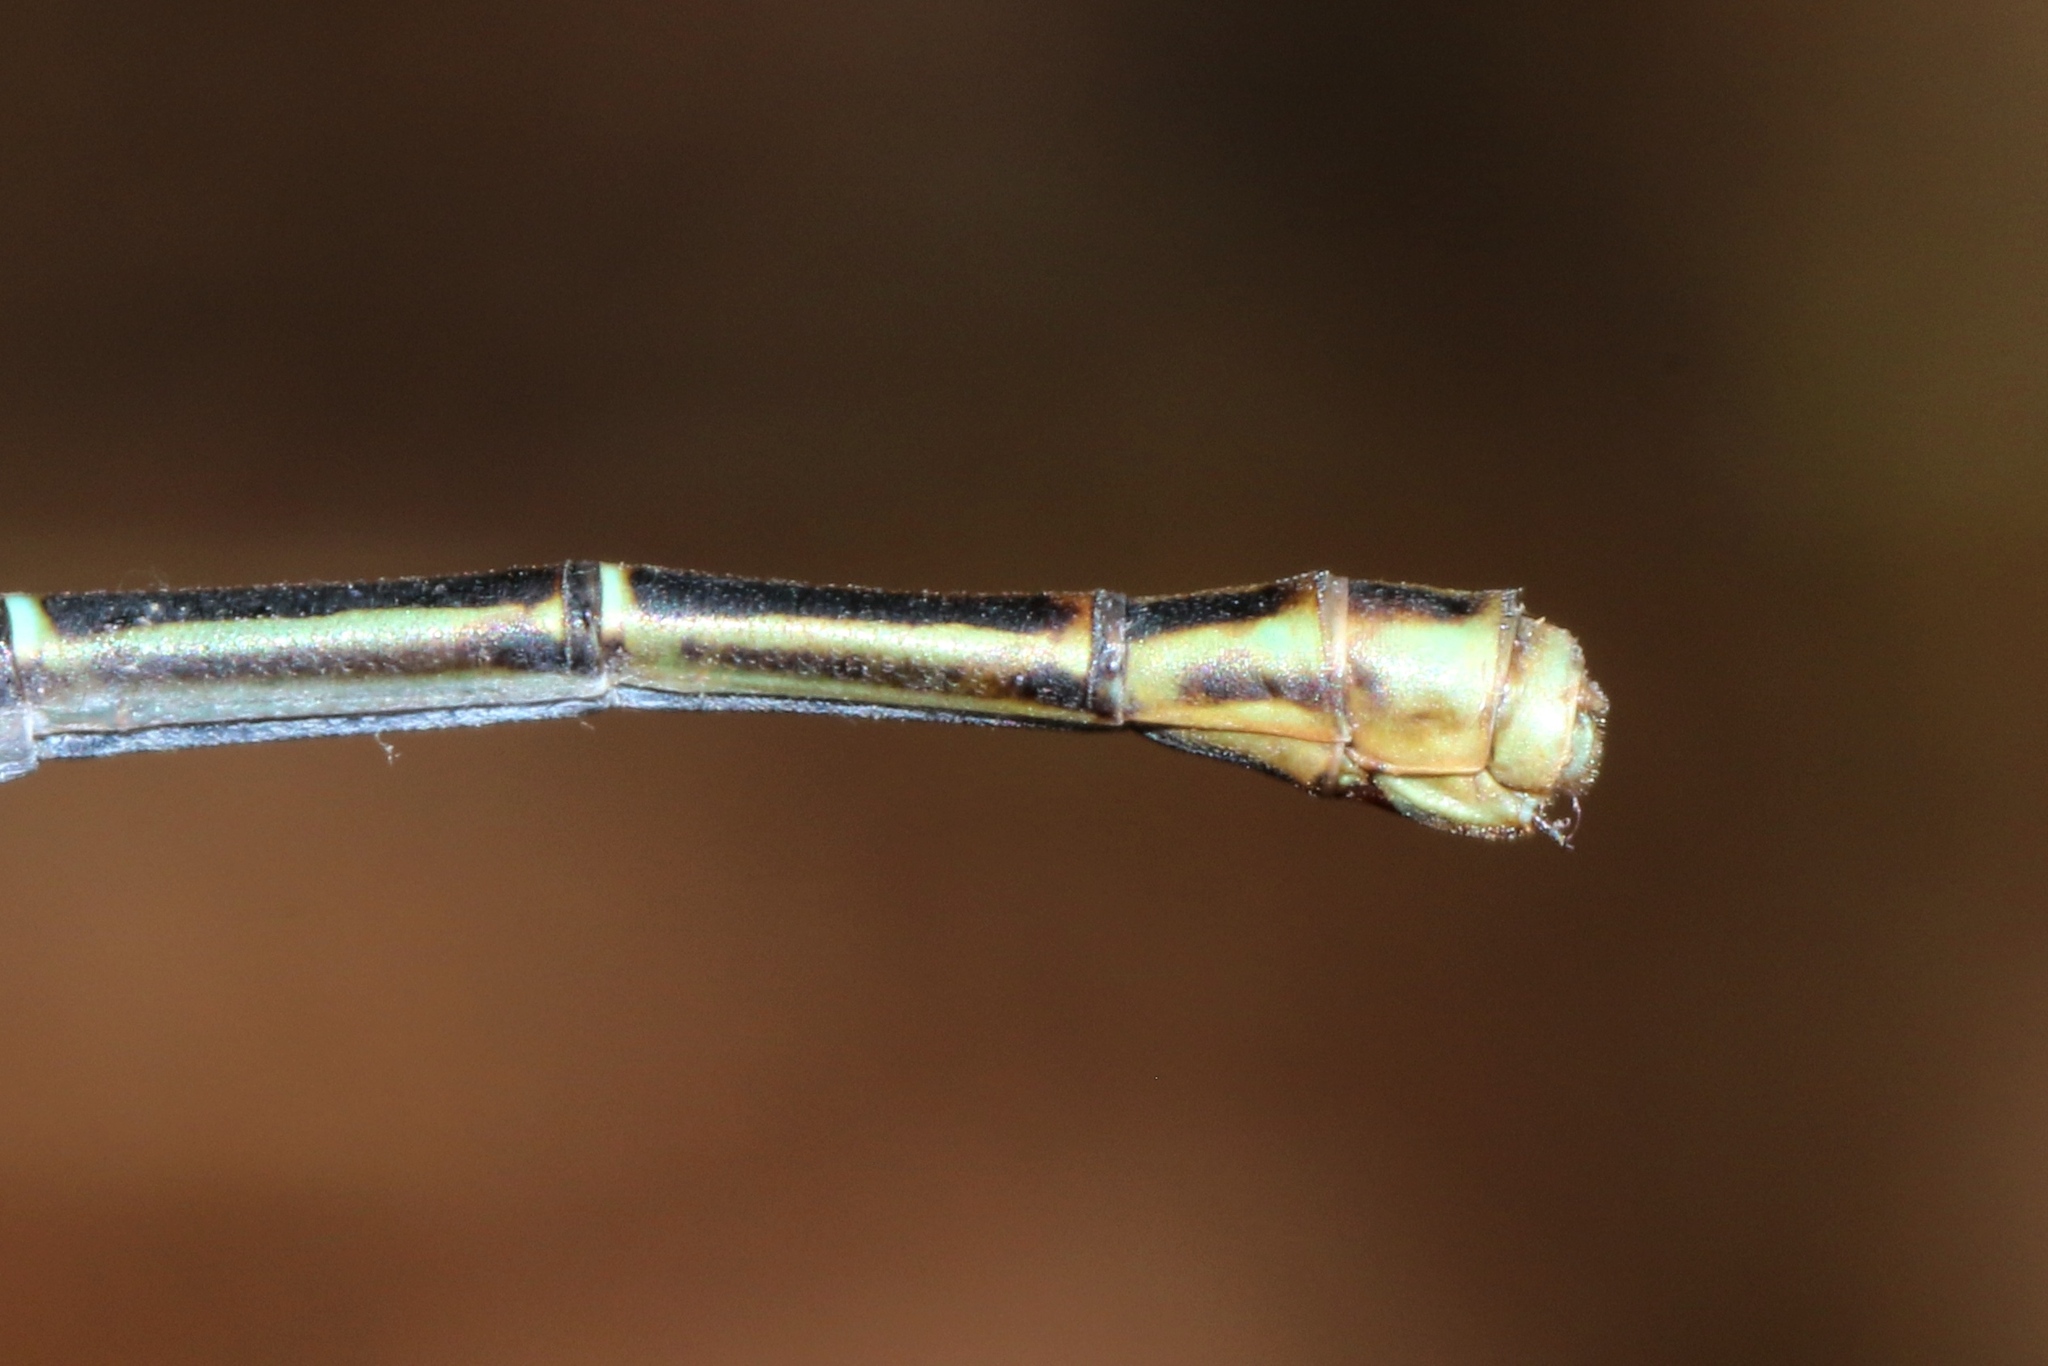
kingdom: Animalia
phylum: Arthropoda
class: Insecta
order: Odonata
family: Coenagrionidae
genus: Argia
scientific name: Argia moesta
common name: Powdered dancer
